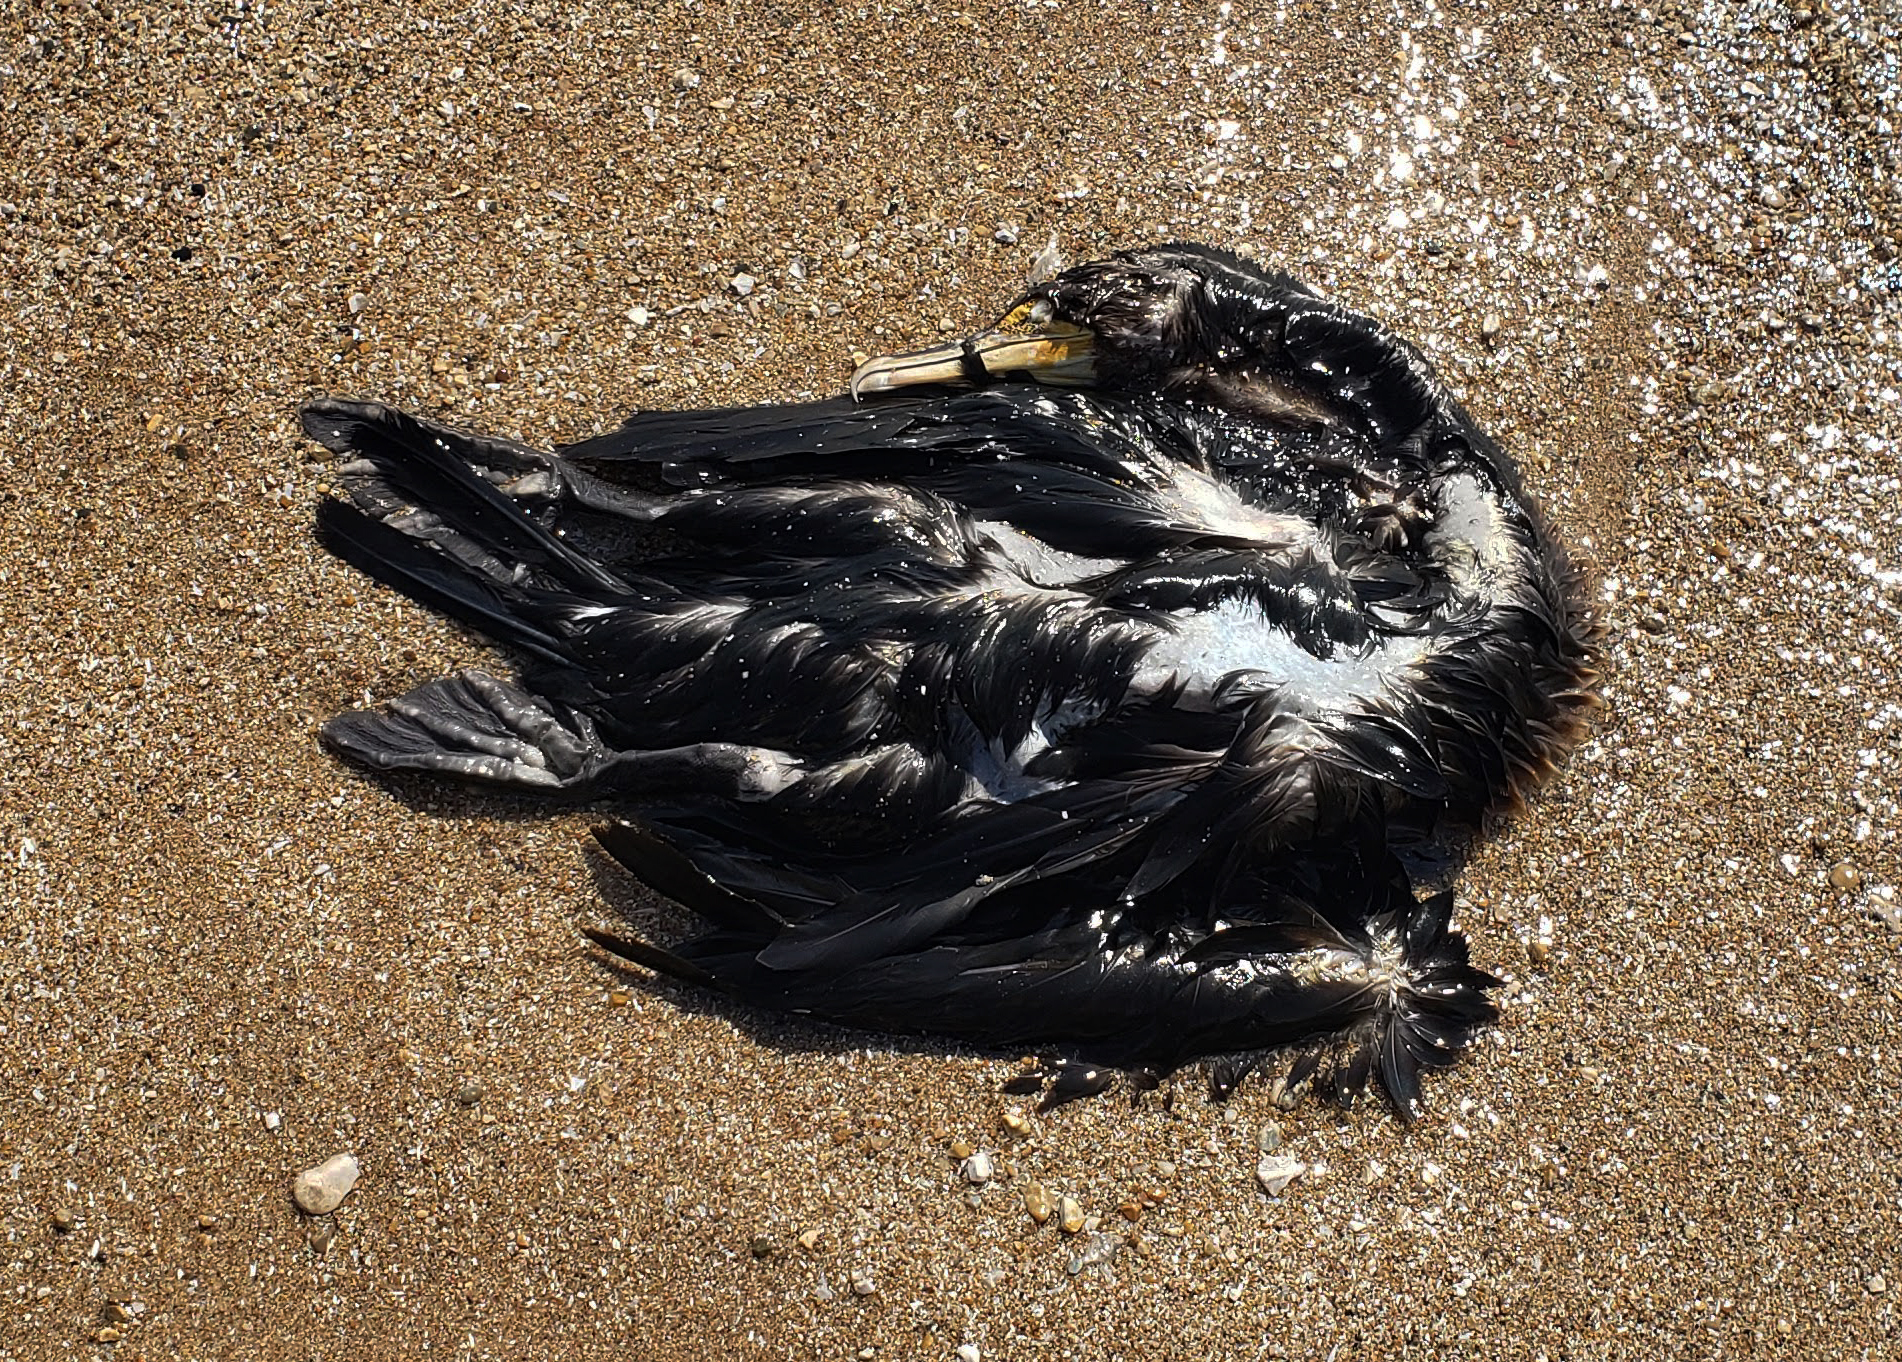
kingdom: Animalia
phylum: Chordata
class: Aves
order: Suliformes
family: Phalacrocoracidae
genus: Phalacrocorax
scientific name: Phalacrocorax auritus
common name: Double-crested cormorant
